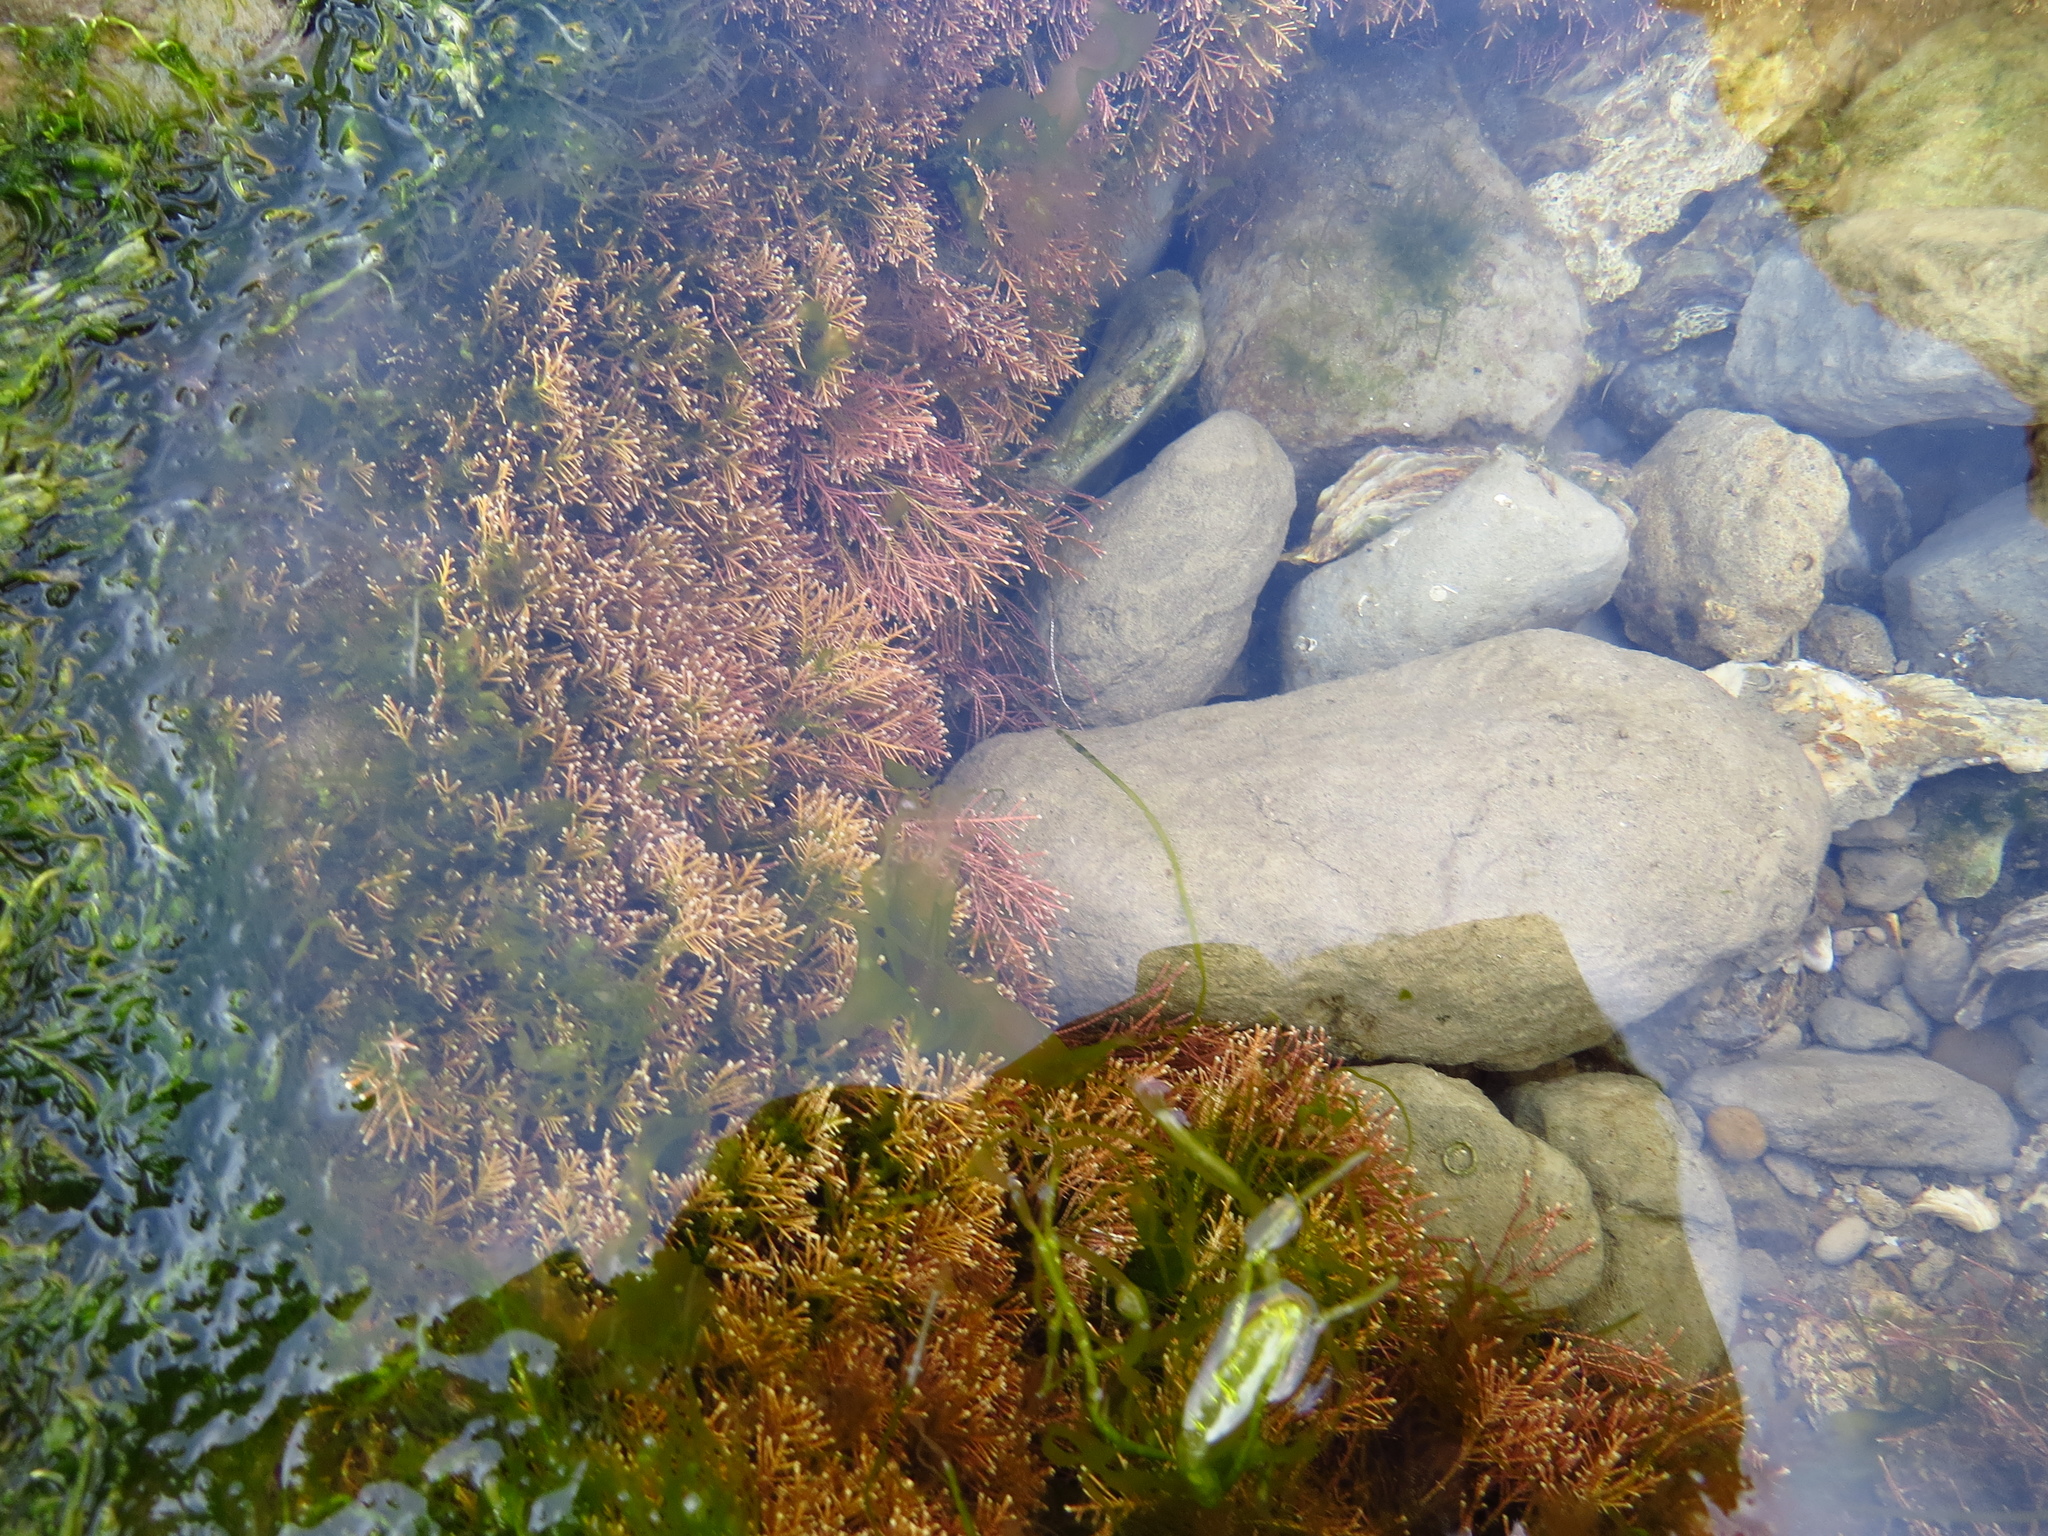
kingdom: Plantae
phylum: Rhodophyta
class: Florideophyceae
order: Corallinales
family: Corallinaceae
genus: Corallina
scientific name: Corallina officinalis
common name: Coral weed
